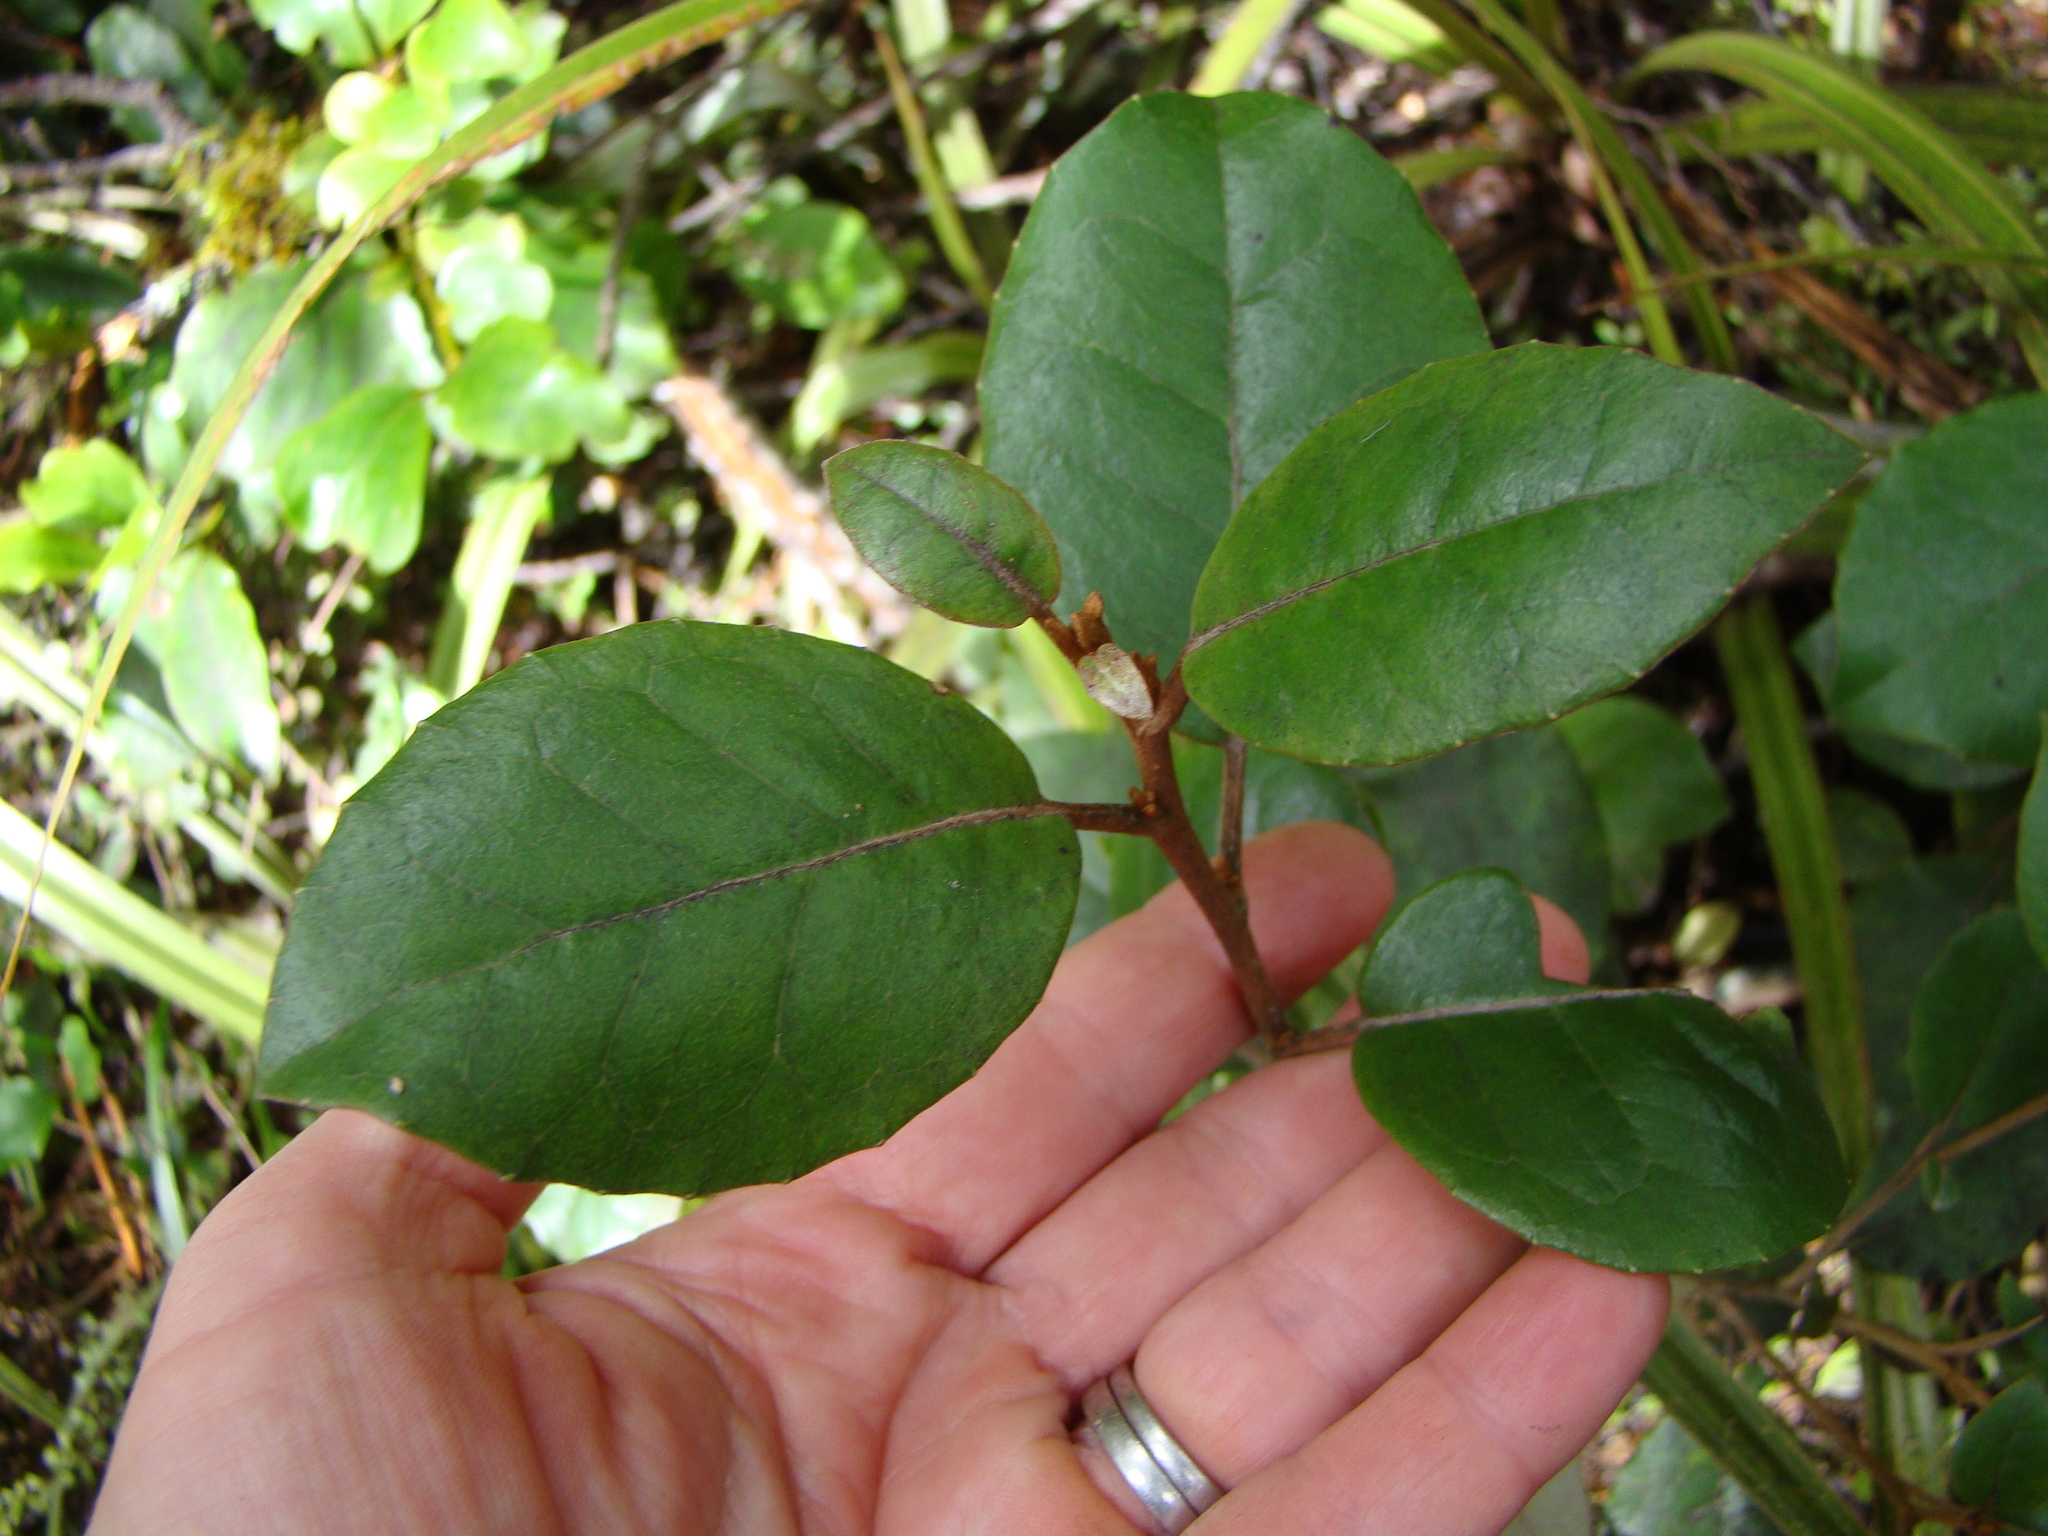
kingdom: Plantae
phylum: Tracheophyta
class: Magnoliopsida
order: Asterales
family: Asteraceae
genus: Olearia
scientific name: Olearia arborescens
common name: Glossy tree daisy
